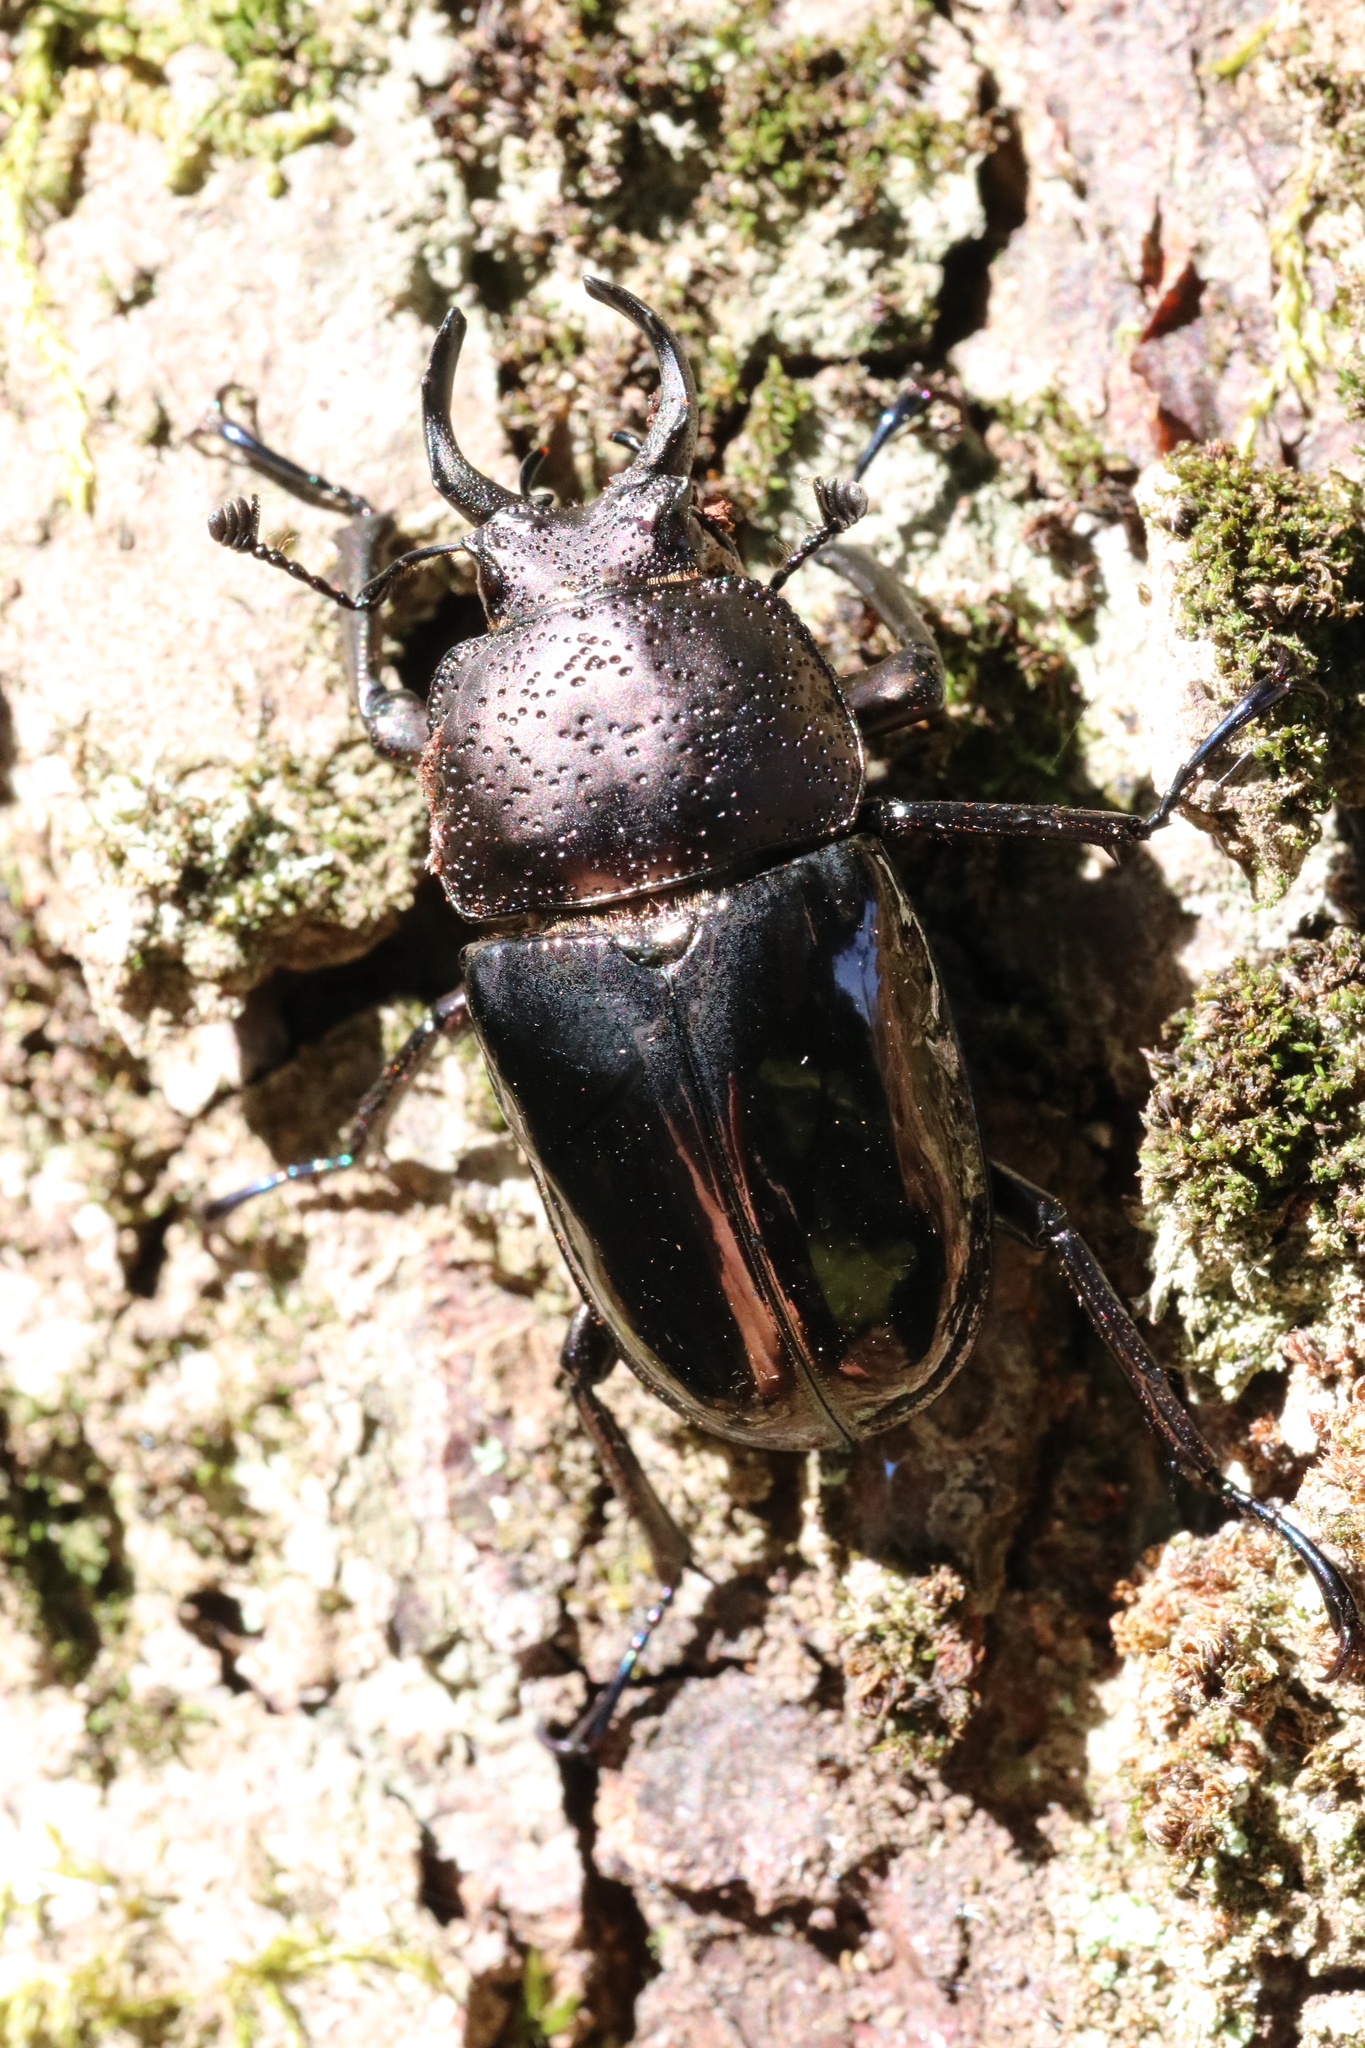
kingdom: Animalia
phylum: Arthropoda
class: Insecta
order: Coleoptera
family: Lucanidae
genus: Streptocerus
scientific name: Streptocerus speciosus
